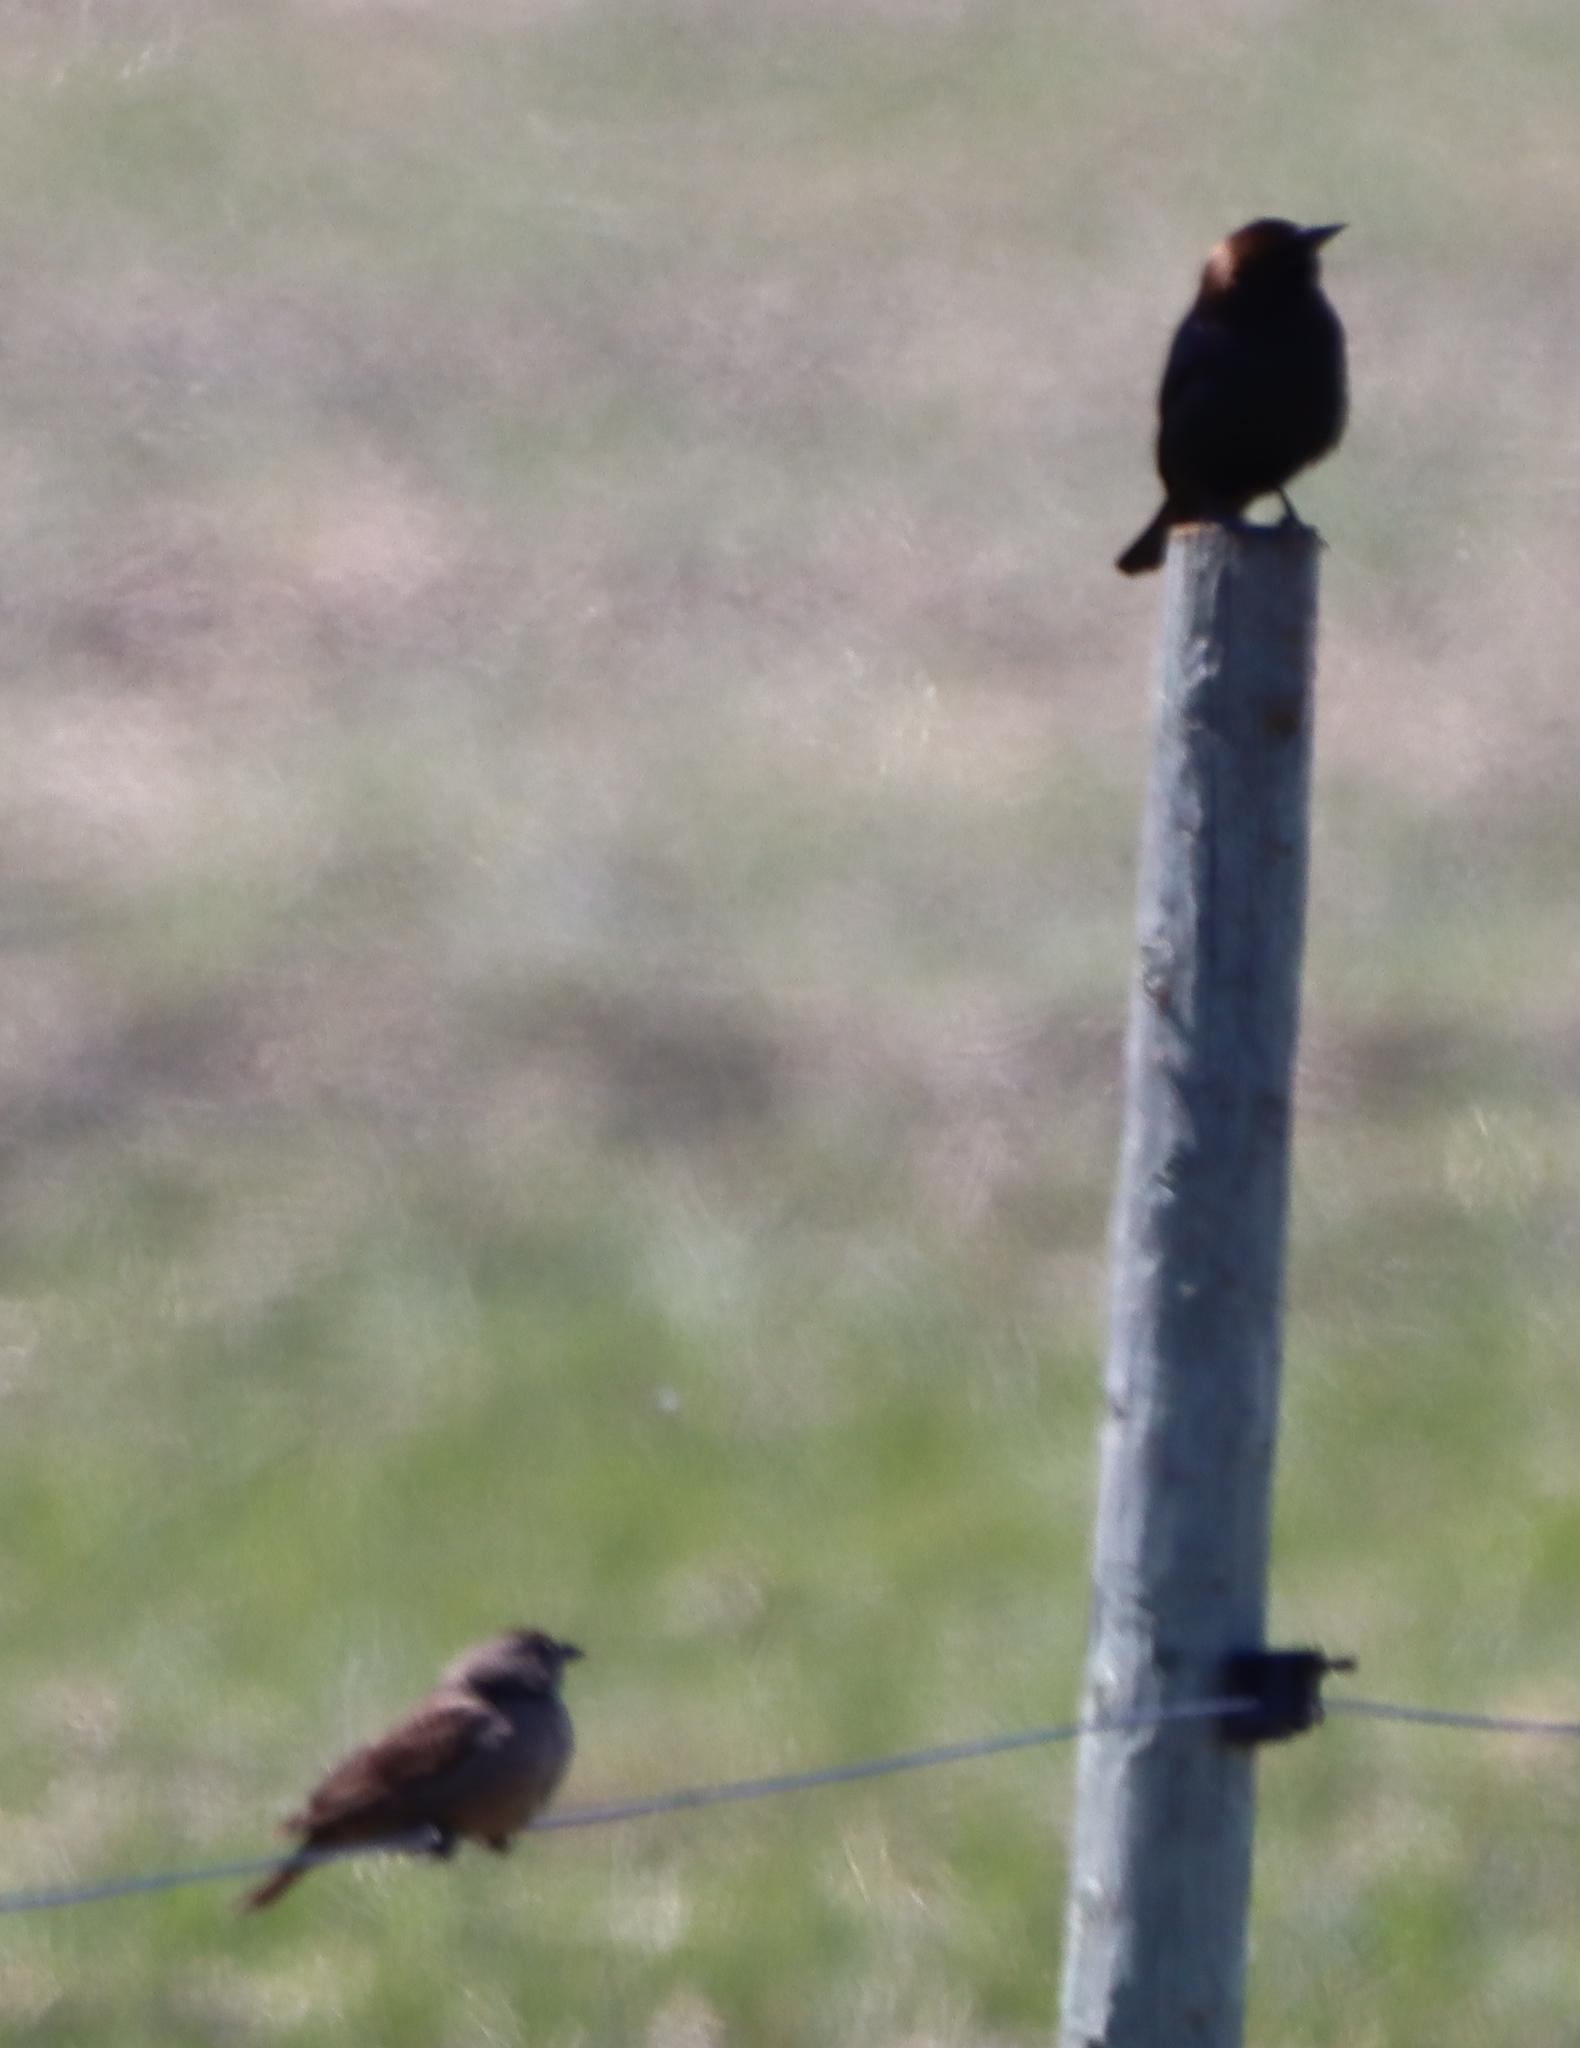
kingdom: Animalia
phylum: Chordata
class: Aves
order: Passeriformes
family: Icteridae
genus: Molothrus
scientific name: Molothrus ater
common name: Brown-headed cowbird
